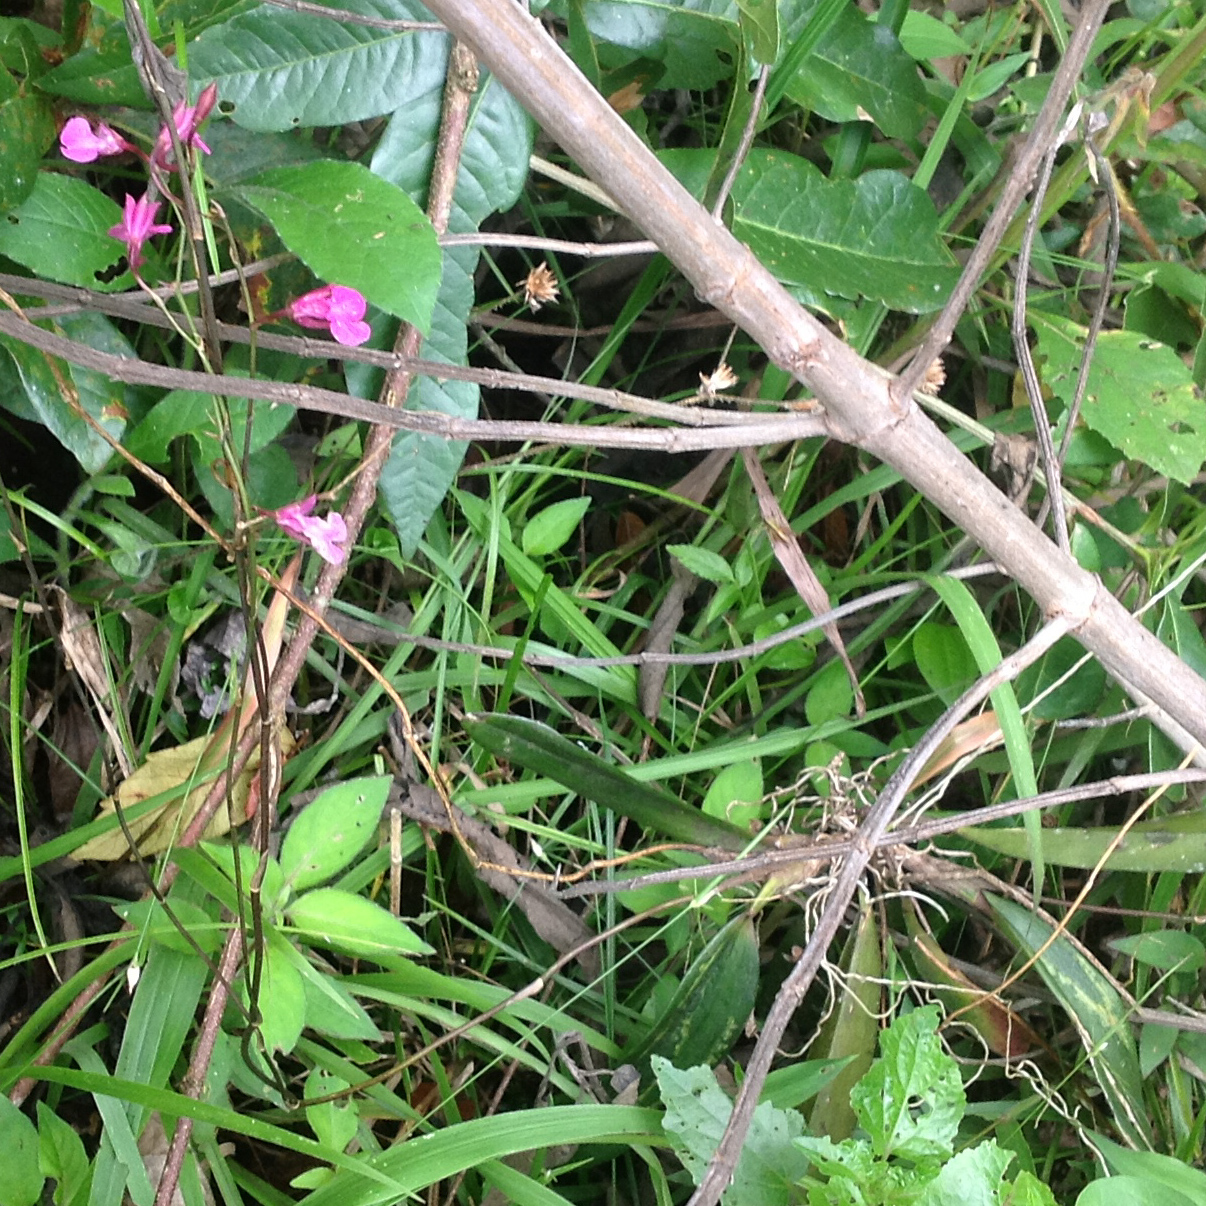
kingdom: Plantae
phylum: Tracheophyta
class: Liliopsida
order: Asparagales
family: Orchidaceae
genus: Comparettia
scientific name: Comparettia falcata
